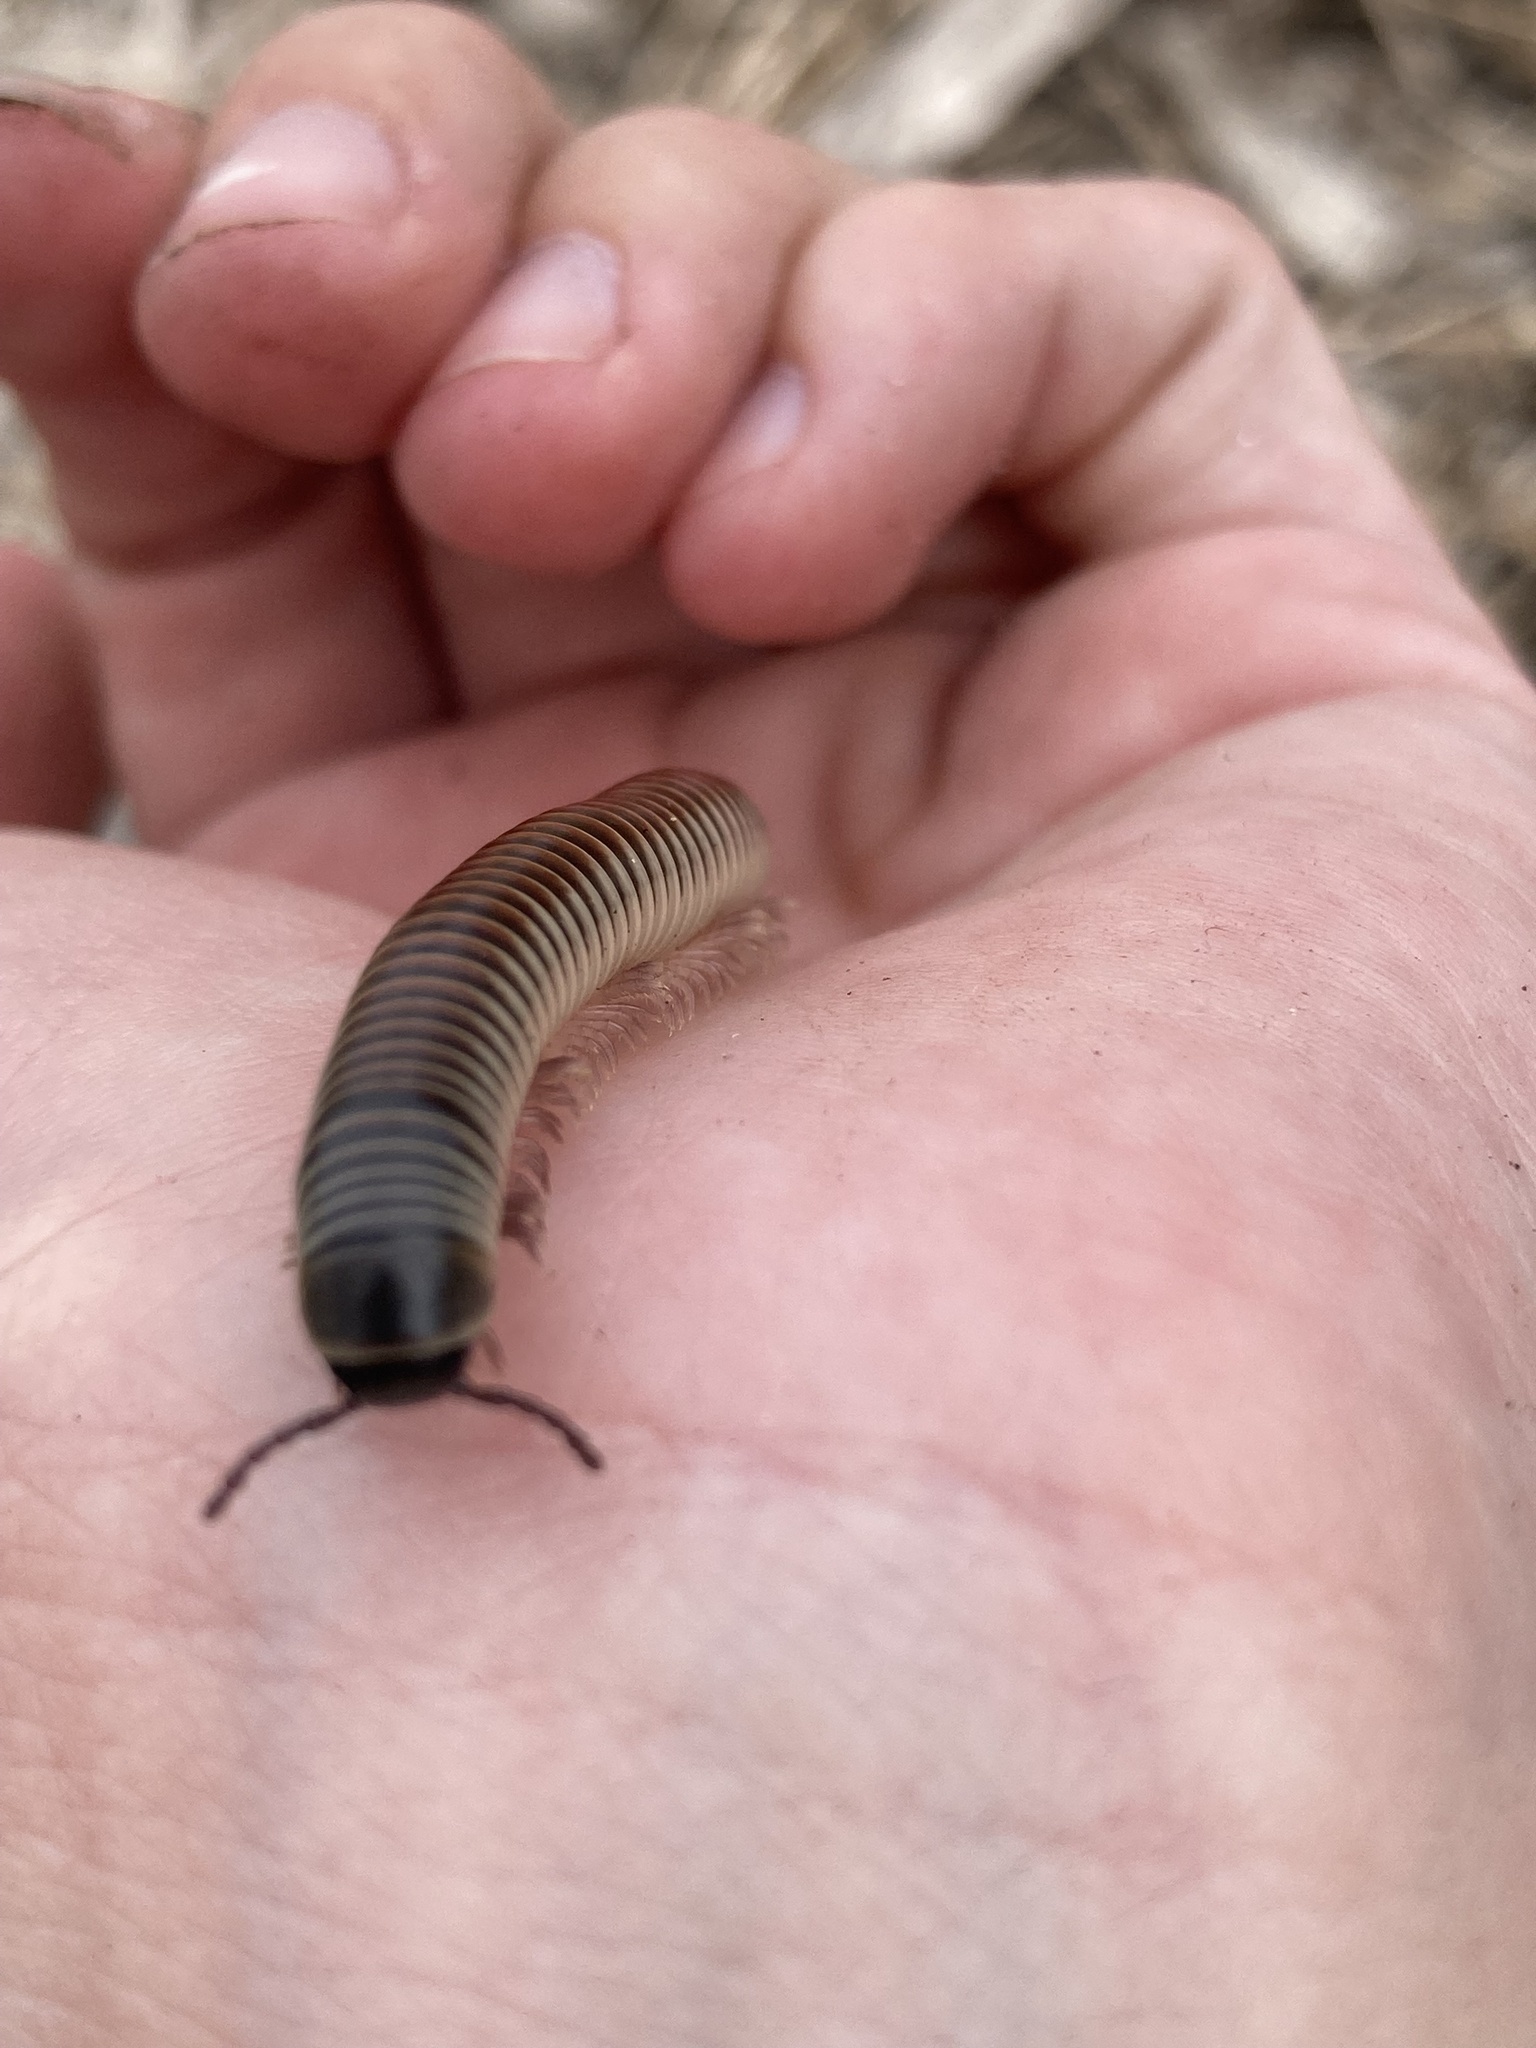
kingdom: Animalia
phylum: Arthropoda
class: Diplopoda
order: Spirobolida
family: Spirobolidae
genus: Chicobolus
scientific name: Chicobolus spinigerus
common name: Florida ivory millipede
